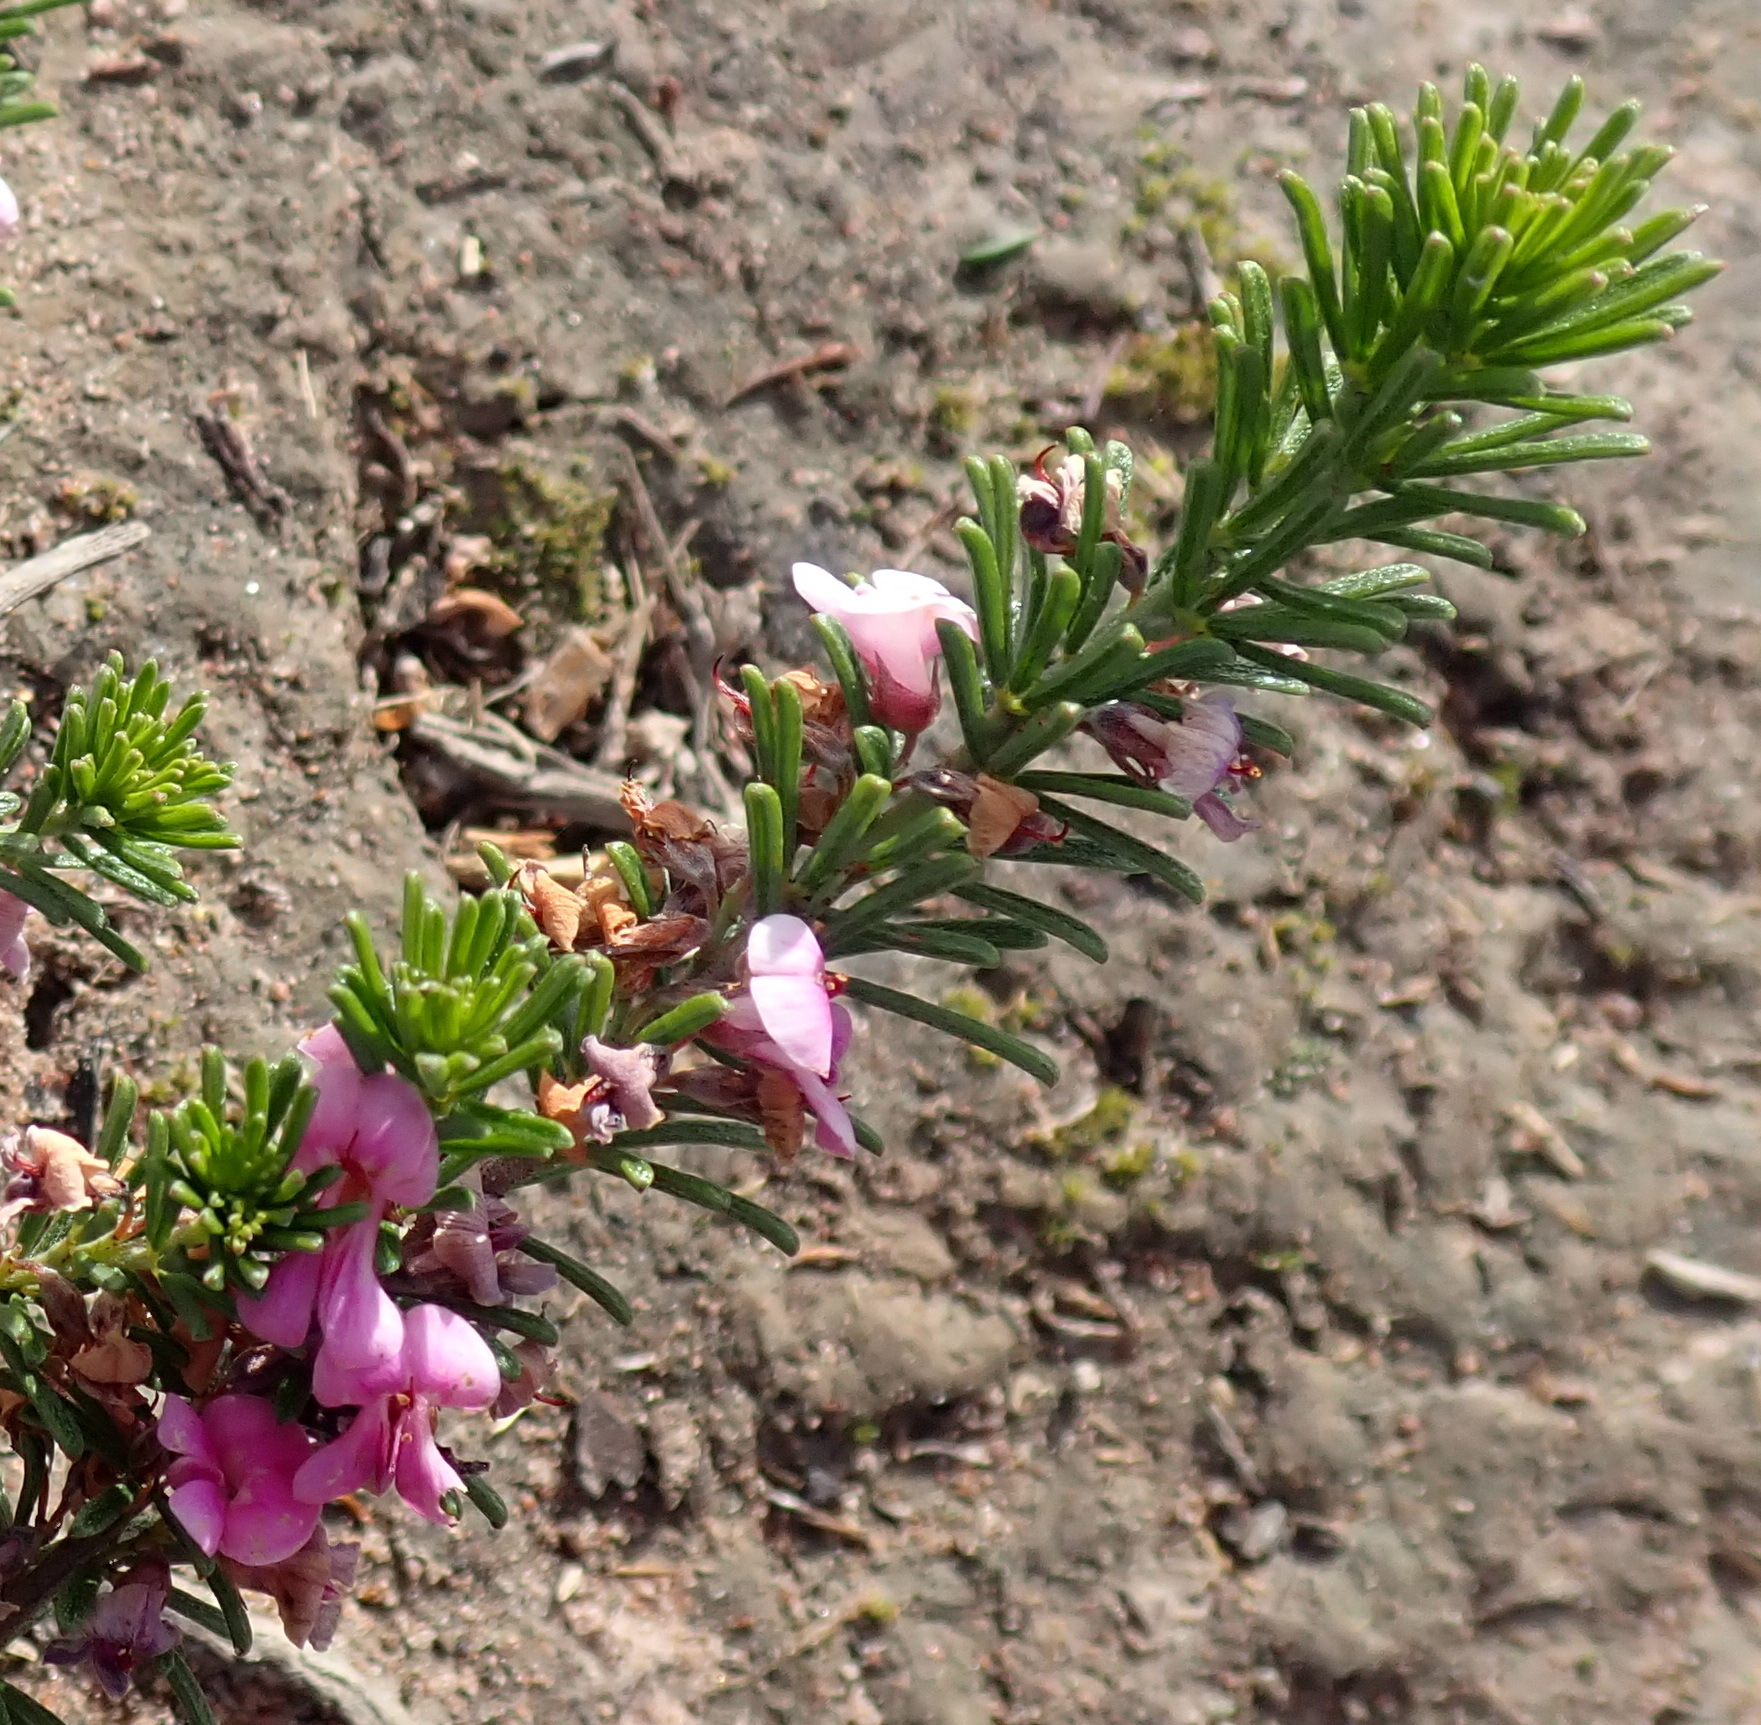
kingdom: Plantae
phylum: Tracheophyta
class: Magnoliopsida
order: Fabales
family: Fabaceae
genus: Indigofera
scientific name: Indigofera pappei
